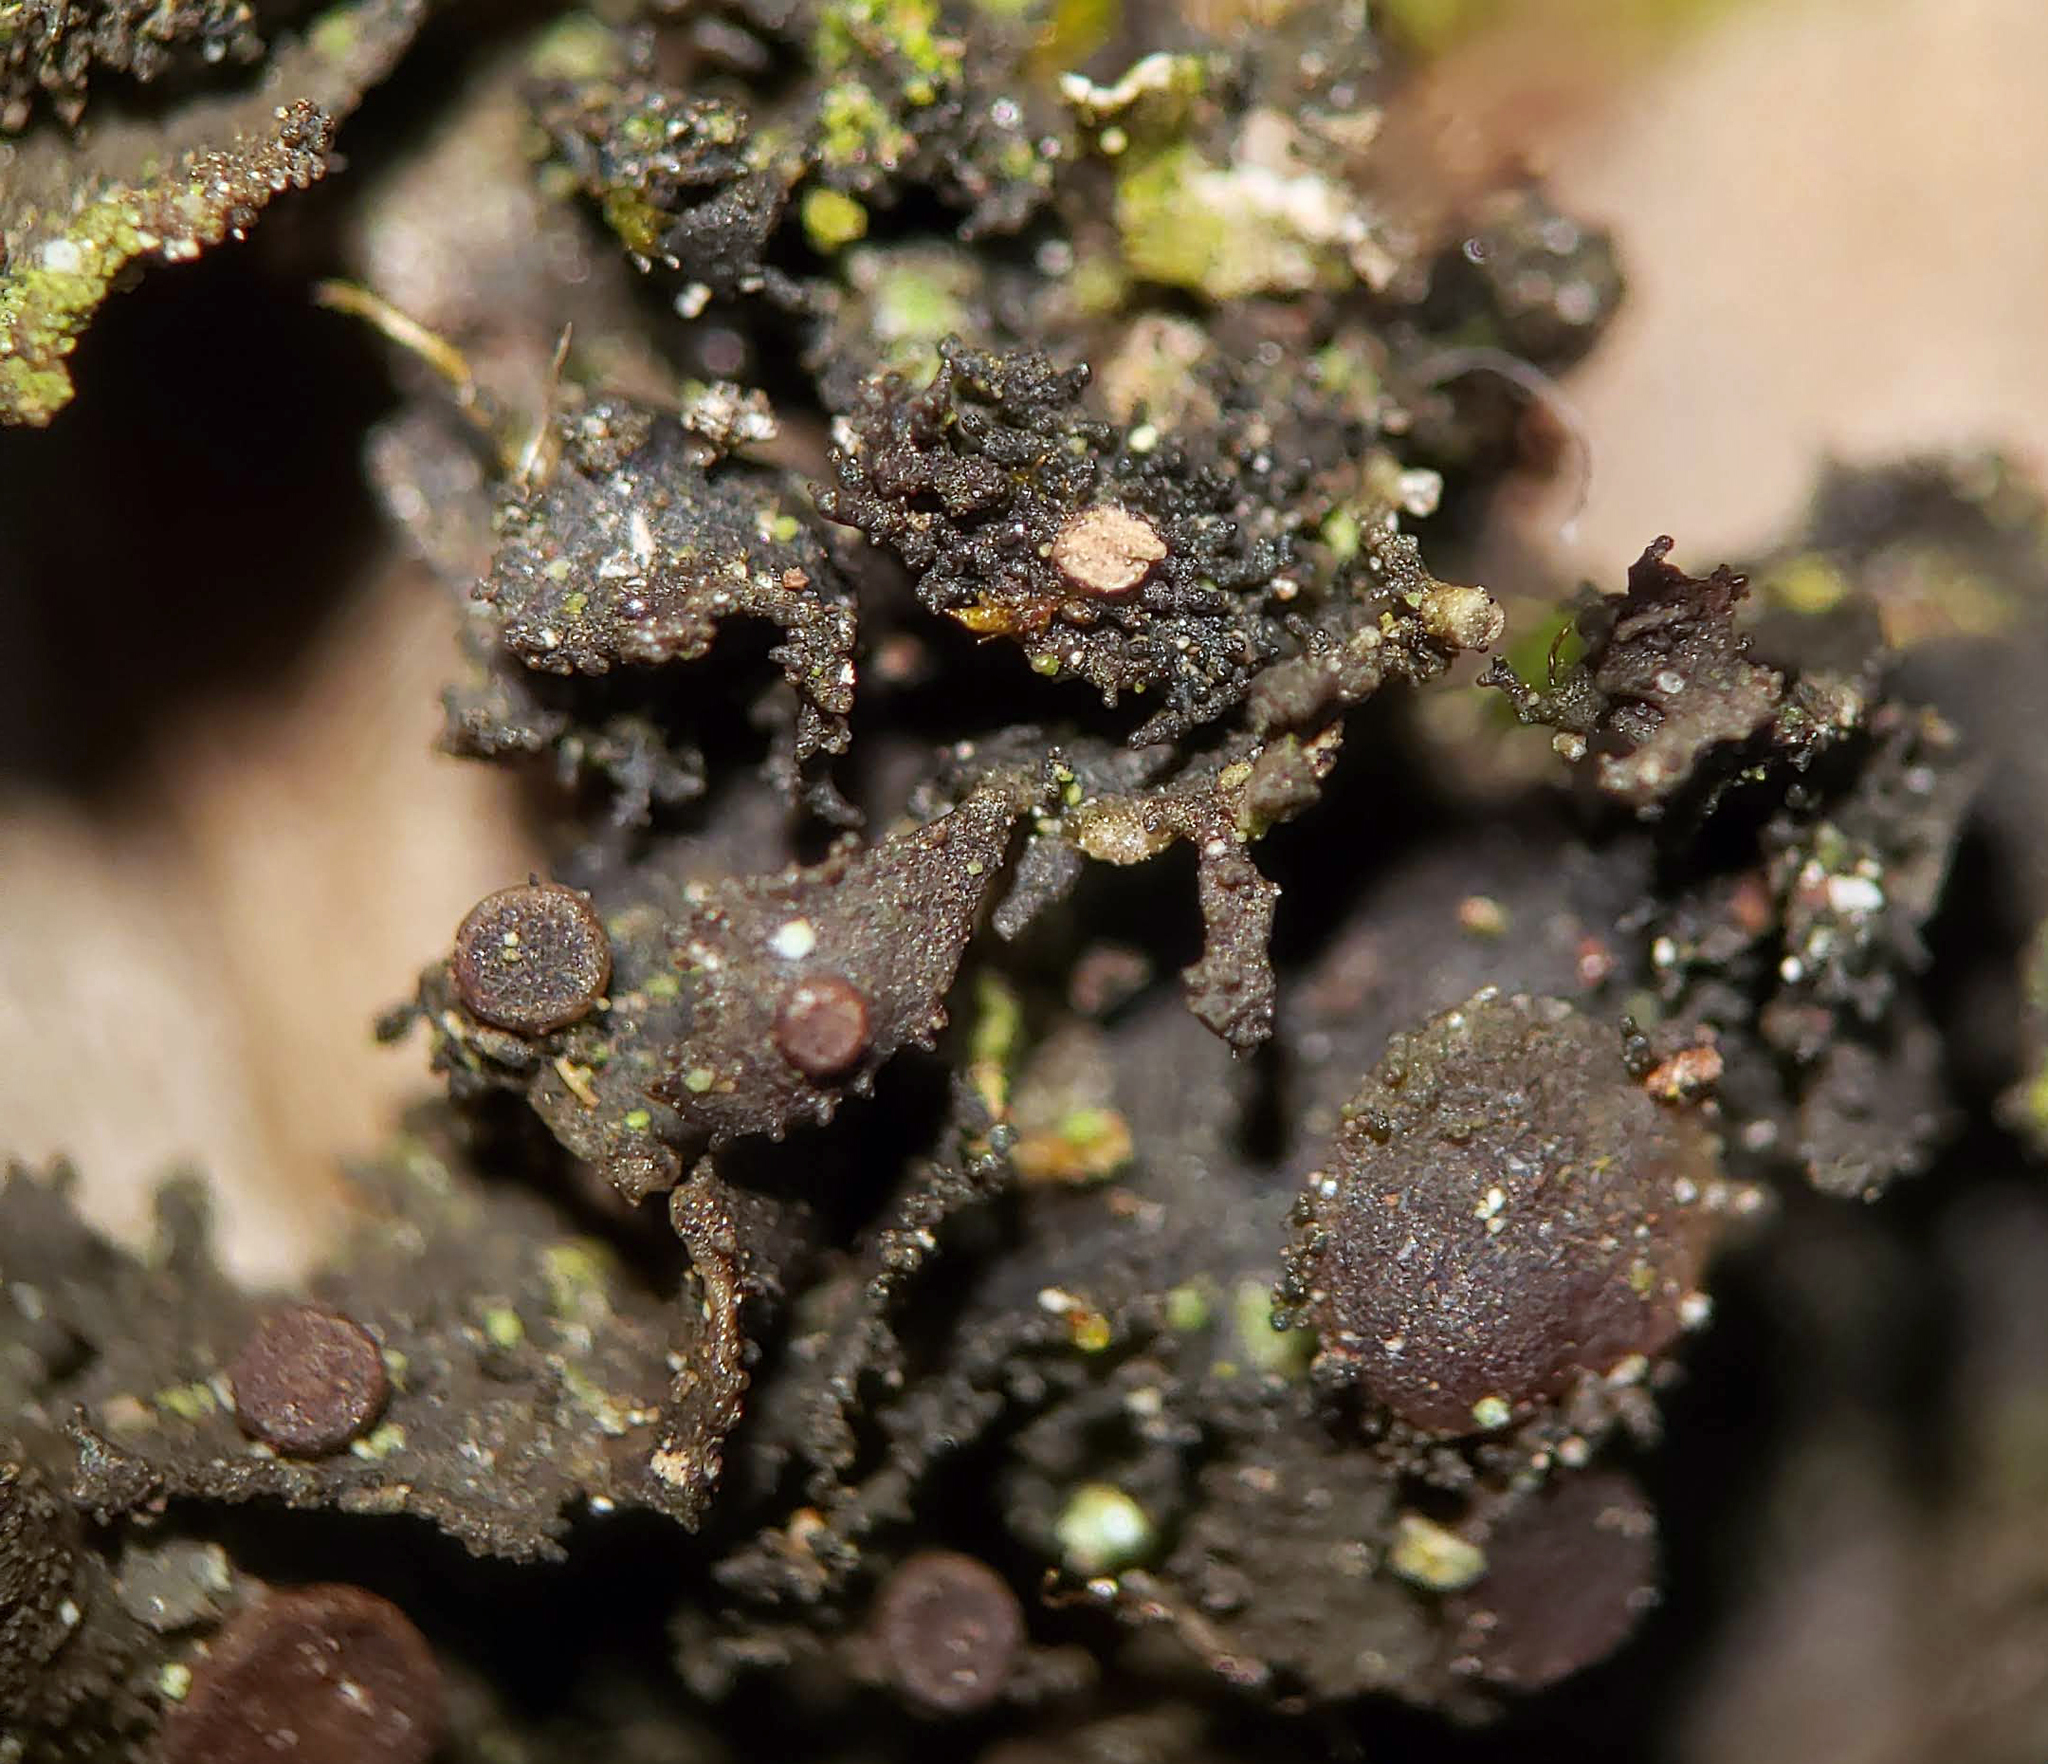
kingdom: Fungi
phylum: Ascomycota
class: Lecanoromycetes
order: Peltigerales
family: Collemataceae
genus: Scytinium
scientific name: Scytinium dactylinum
